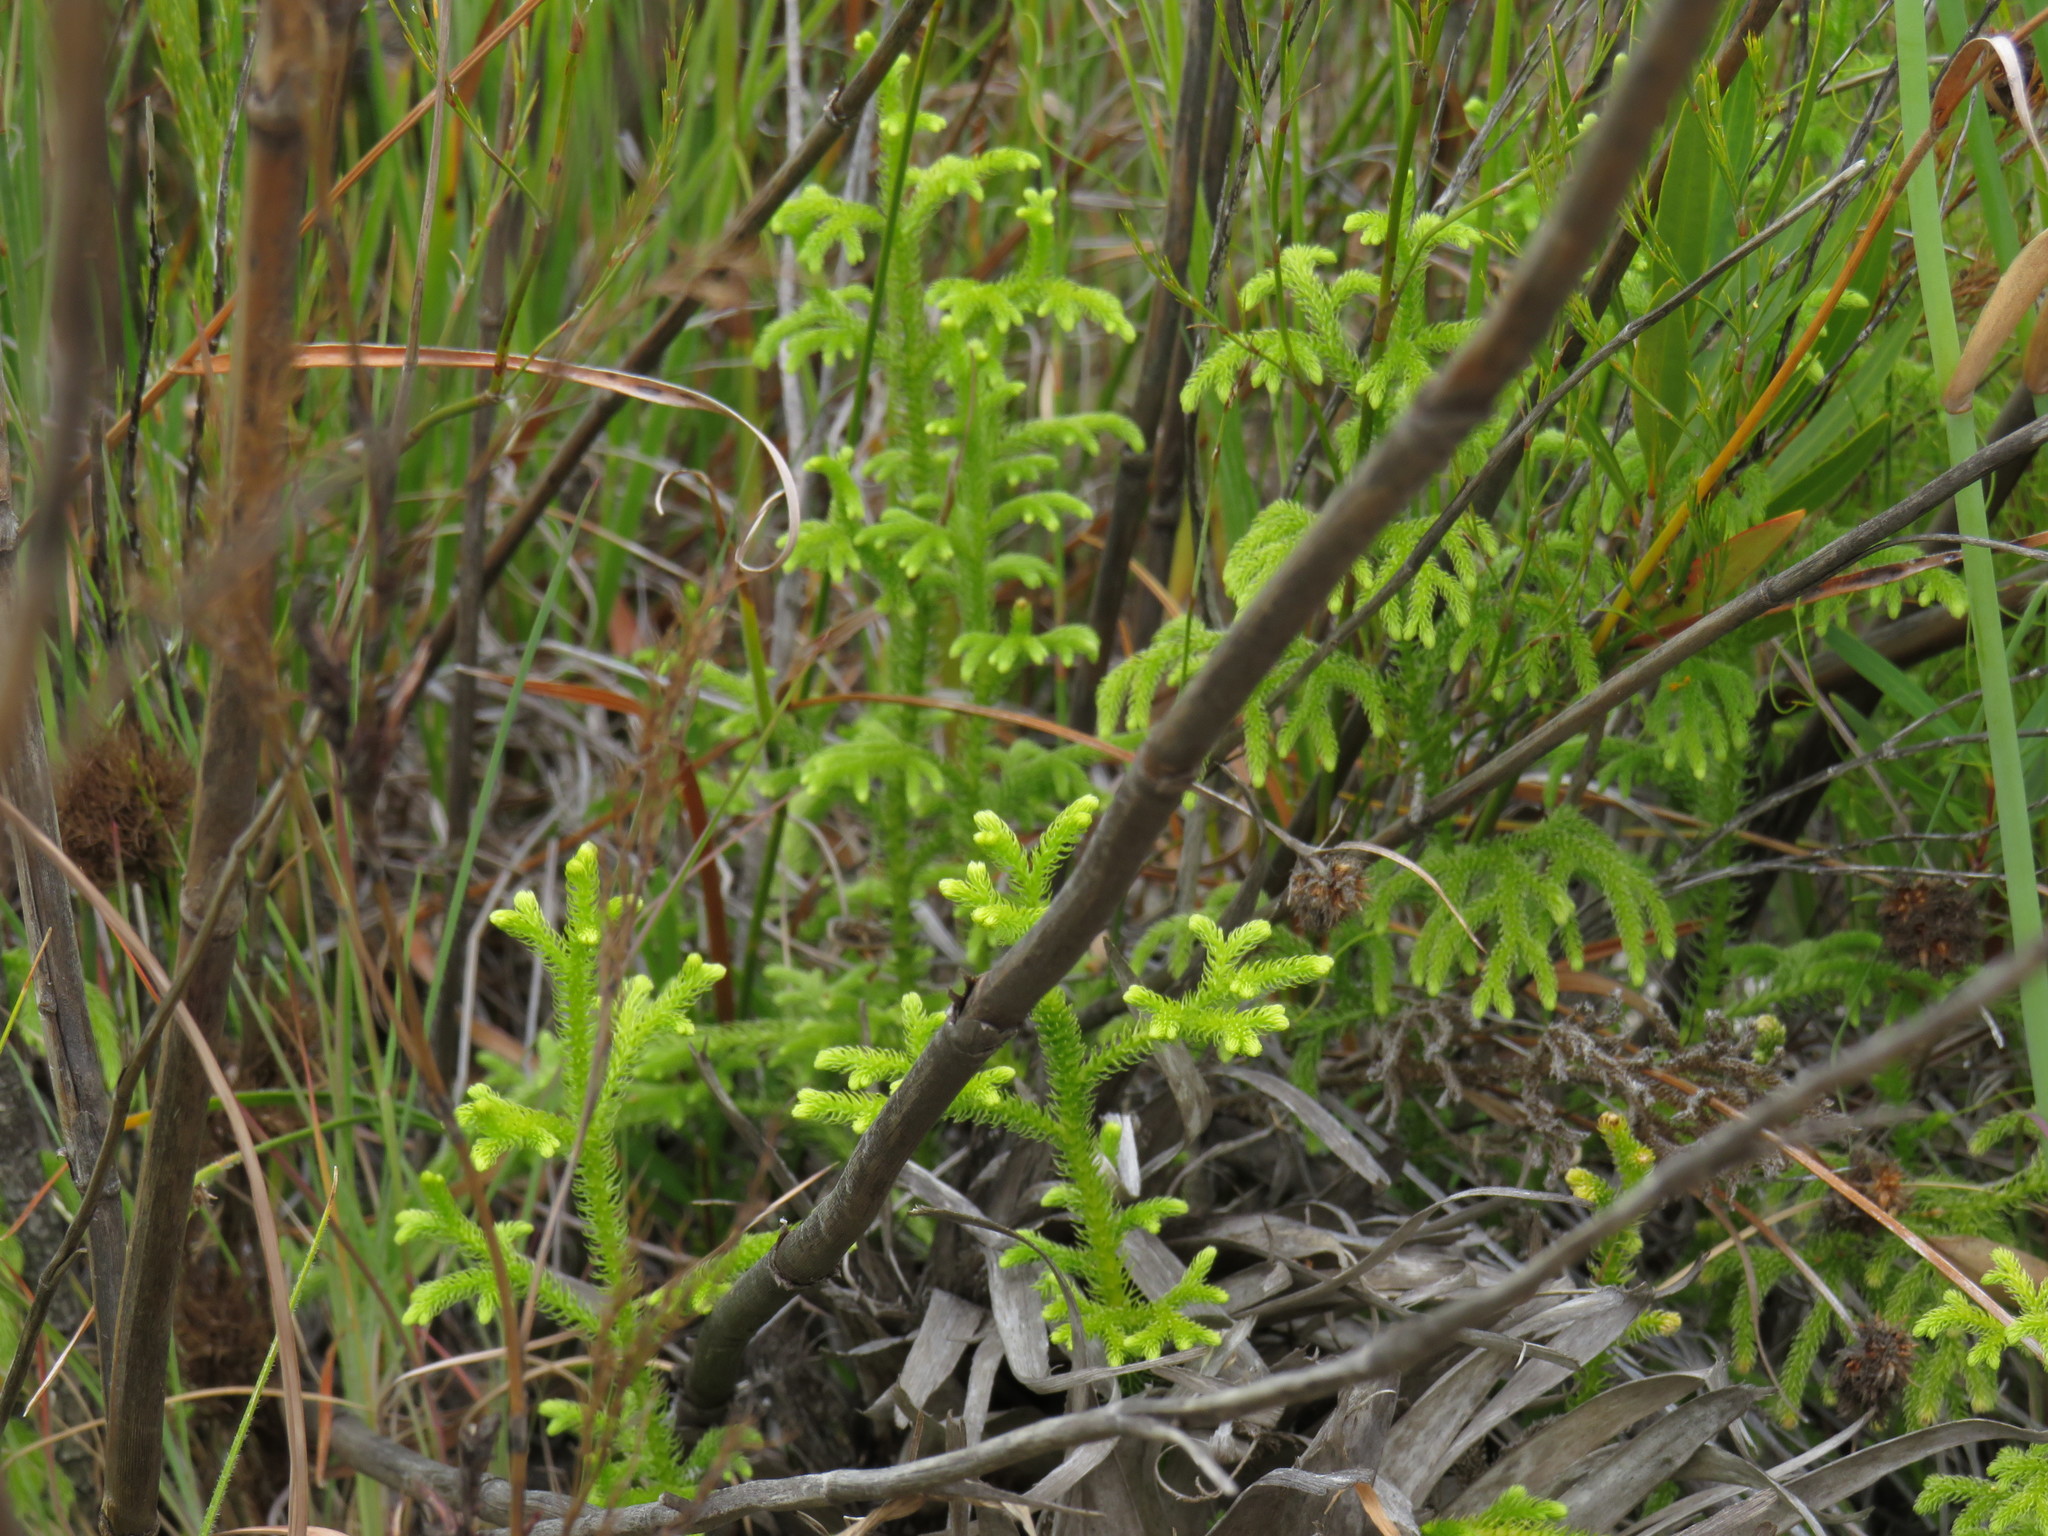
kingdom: Plantae
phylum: Tracheophyta
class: Lycopodiopsida
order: Lycopodiales
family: Lycopodiaceae
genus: Palhinhaea
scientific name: Palhinhaea cernua
